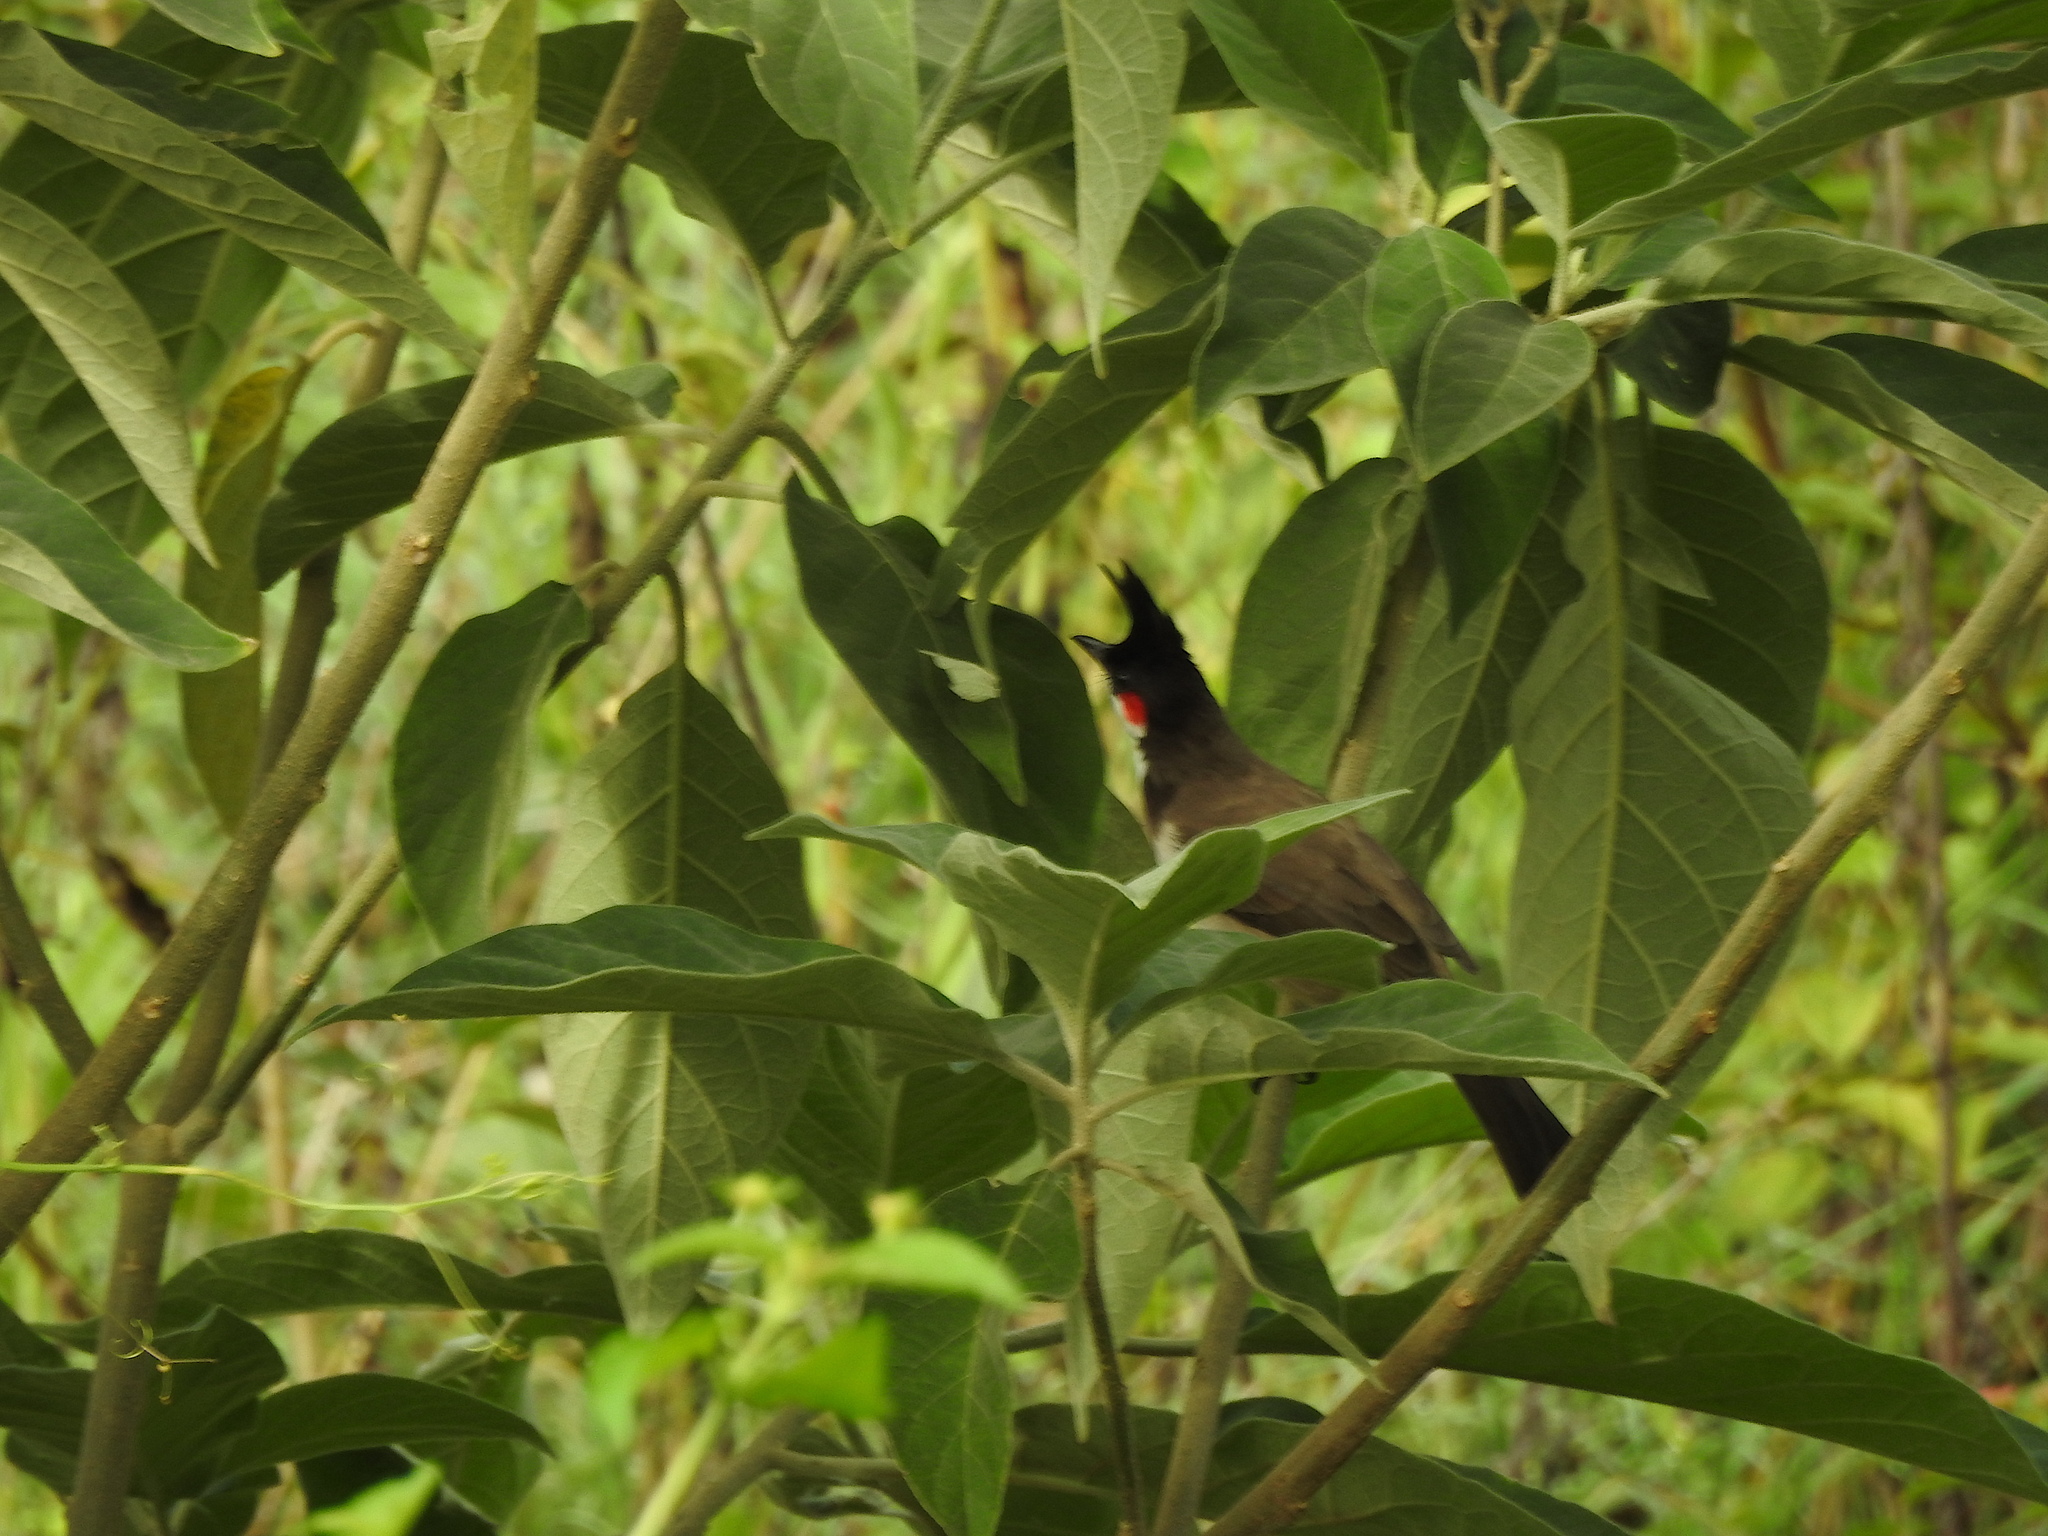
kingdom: Animalia
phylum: Chordata
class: Aves
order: Passeriformes
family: Pycnonotidae
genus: Pycnonotus
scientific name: Pycnonotus jocosus
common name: Red-whiskered bulbul
